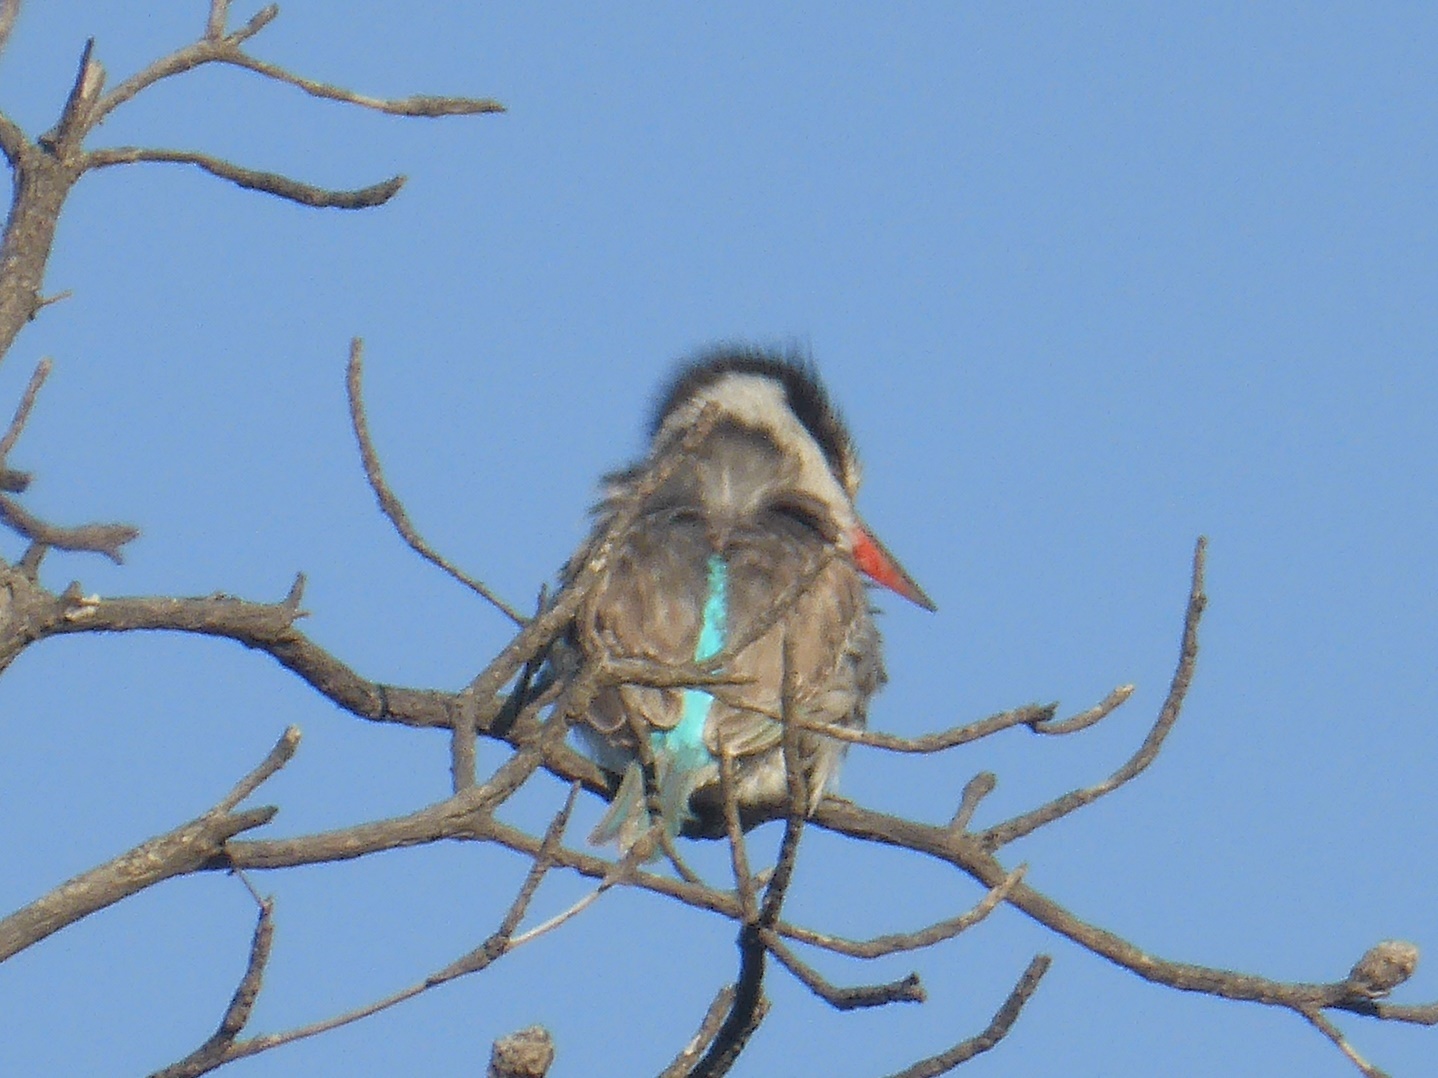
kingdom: Animalia
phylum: Chordata
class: Aves
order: Coraciiformes
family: Alcedinidae
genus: Halcyon
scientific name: Halcyon chelicuti
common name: Striped kingfisher
